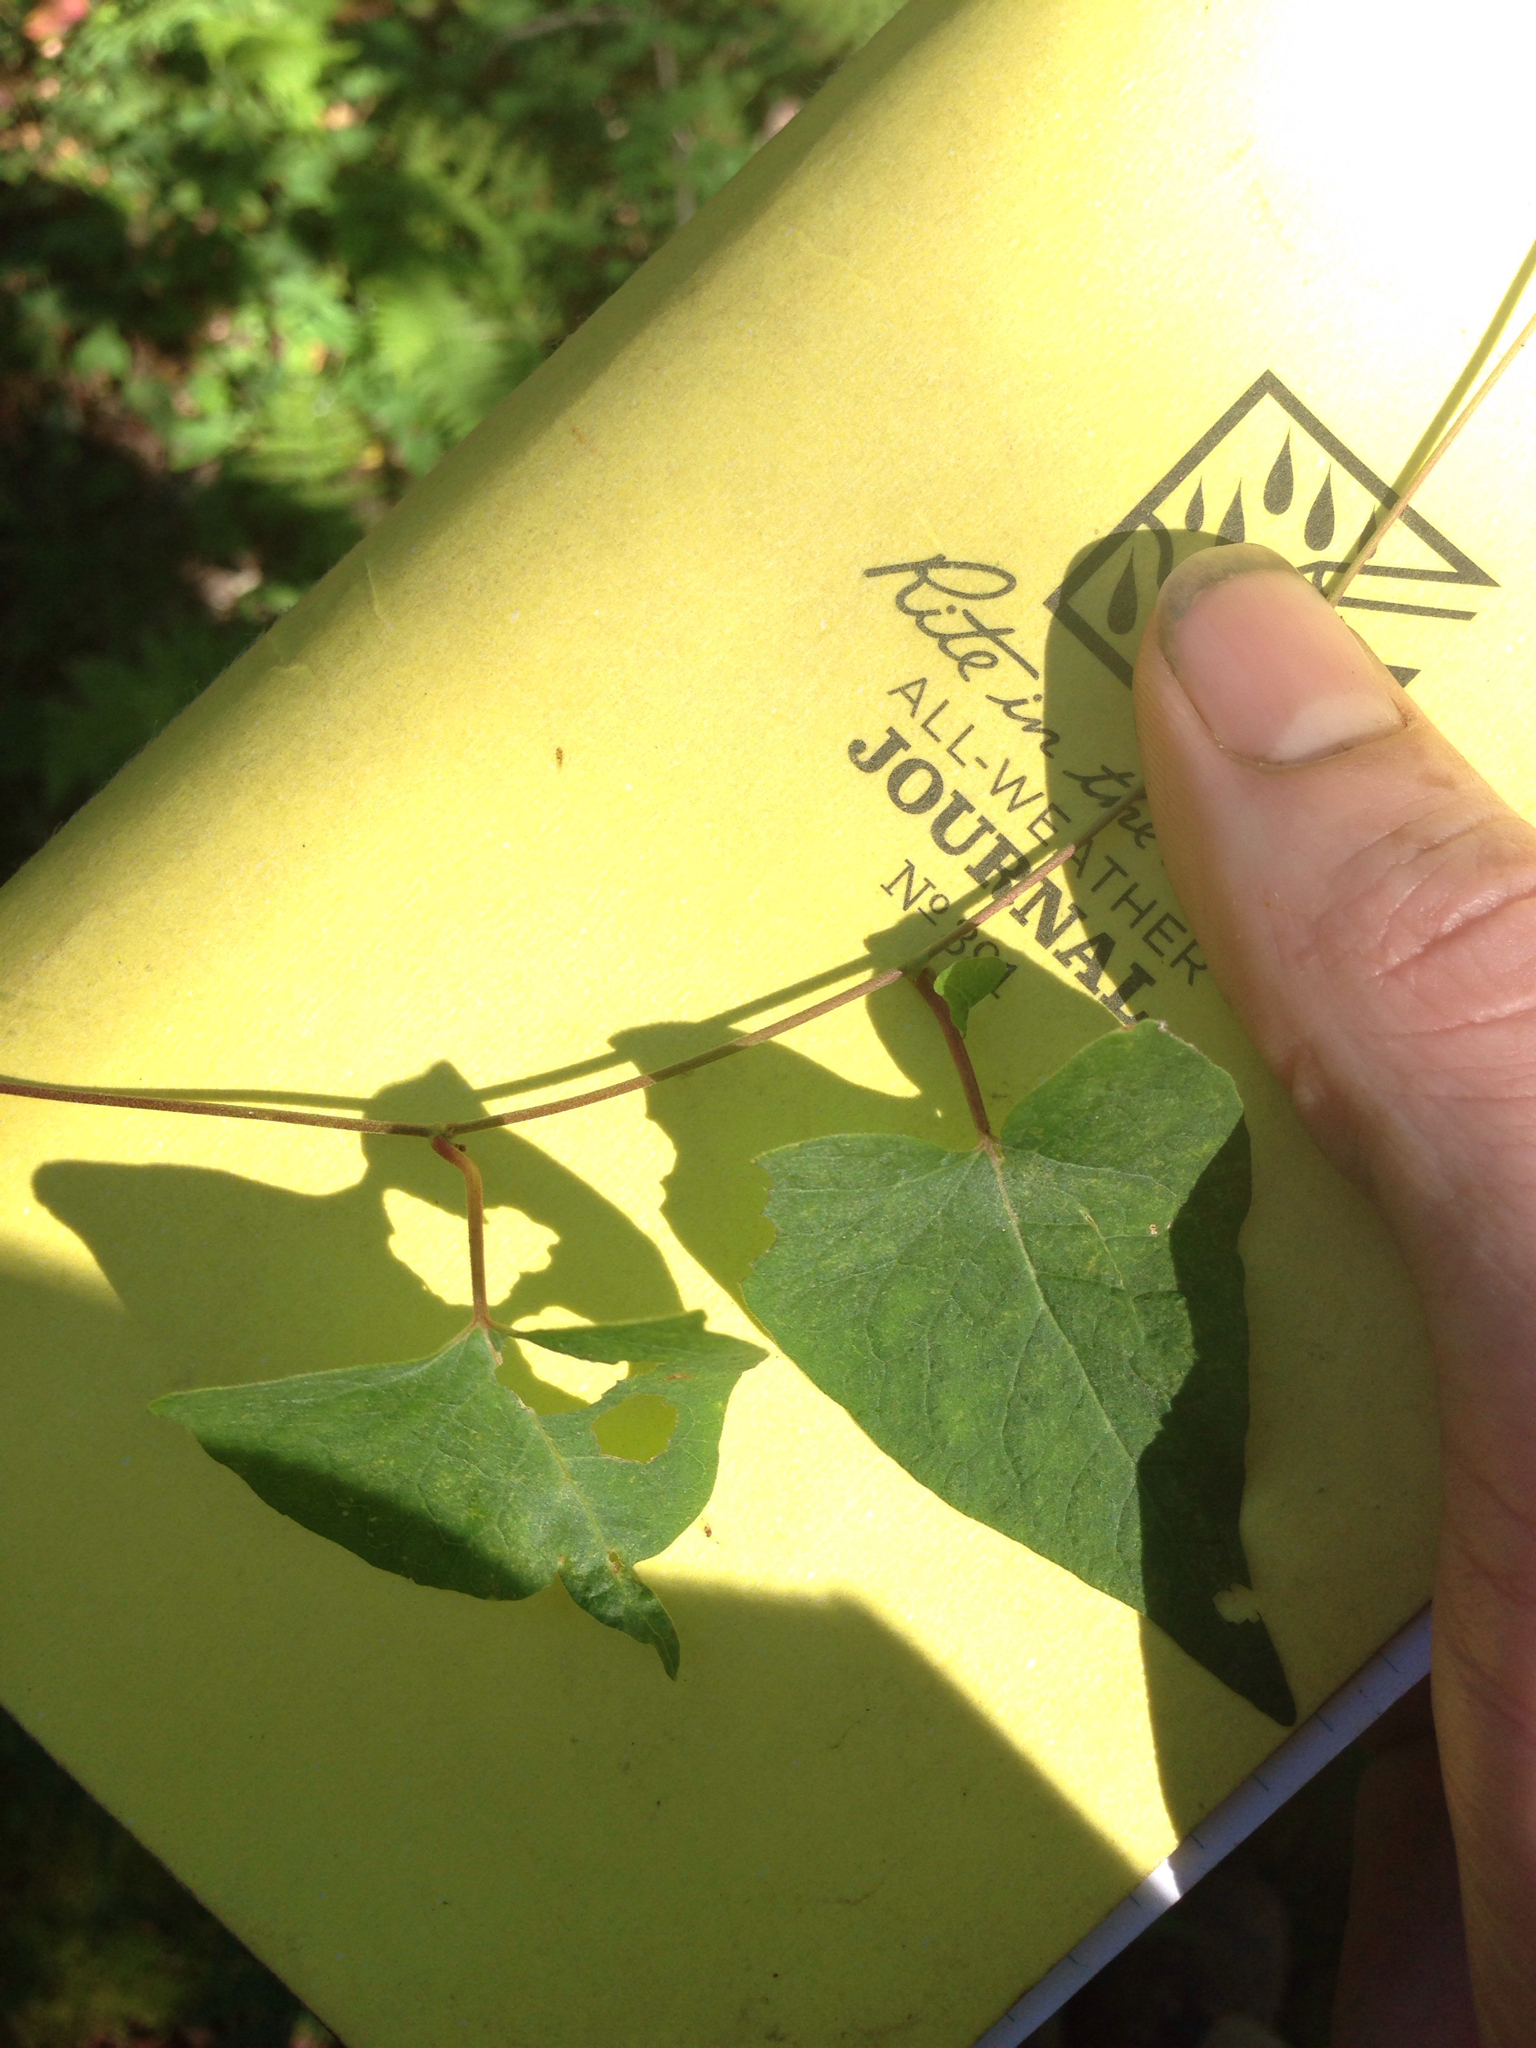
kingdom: Plantae
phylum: Tracheophyta
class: Magnoliopsida
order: Caryophyllales
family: Polygonaceae
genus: Fallopia
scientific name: Fallopia scandens
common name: Climbing false buckwheat
